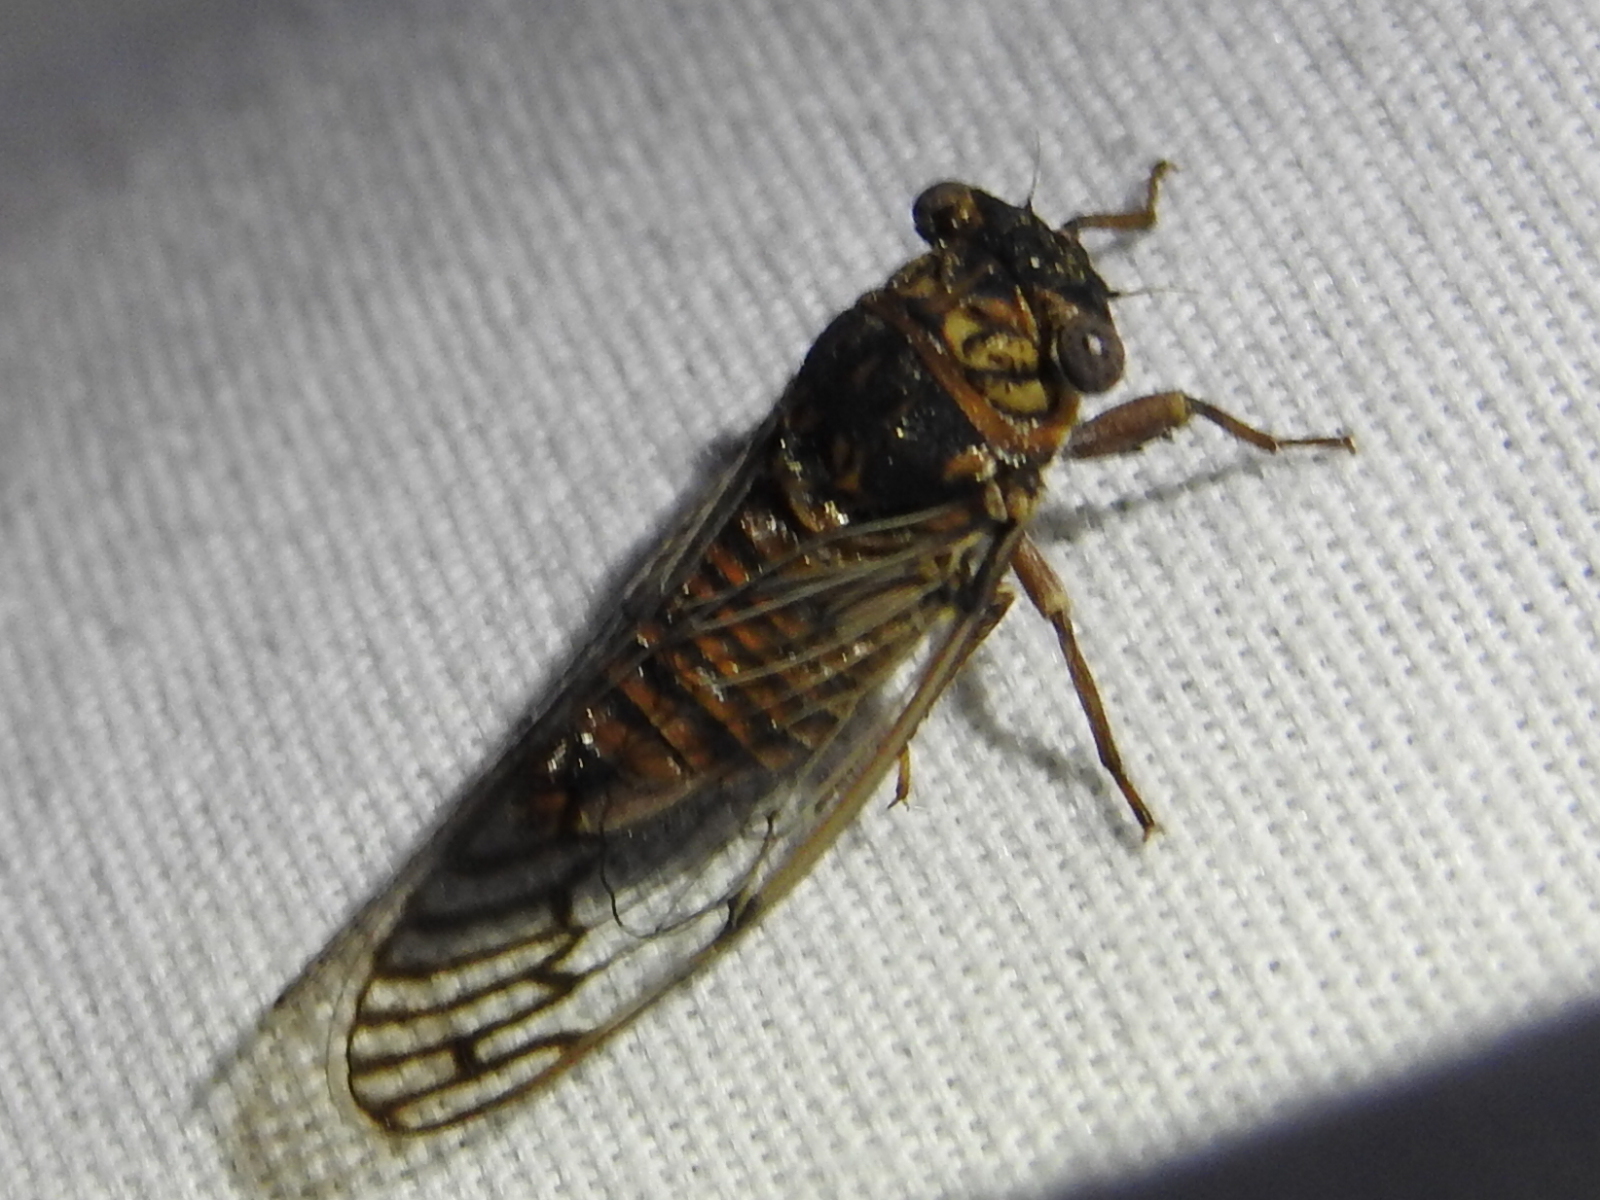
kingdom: Animalia
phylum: Arthropoda
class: Insecta
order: Hemiptera
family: Cicadidae
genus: Pacarina
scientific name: Pacarina puella
